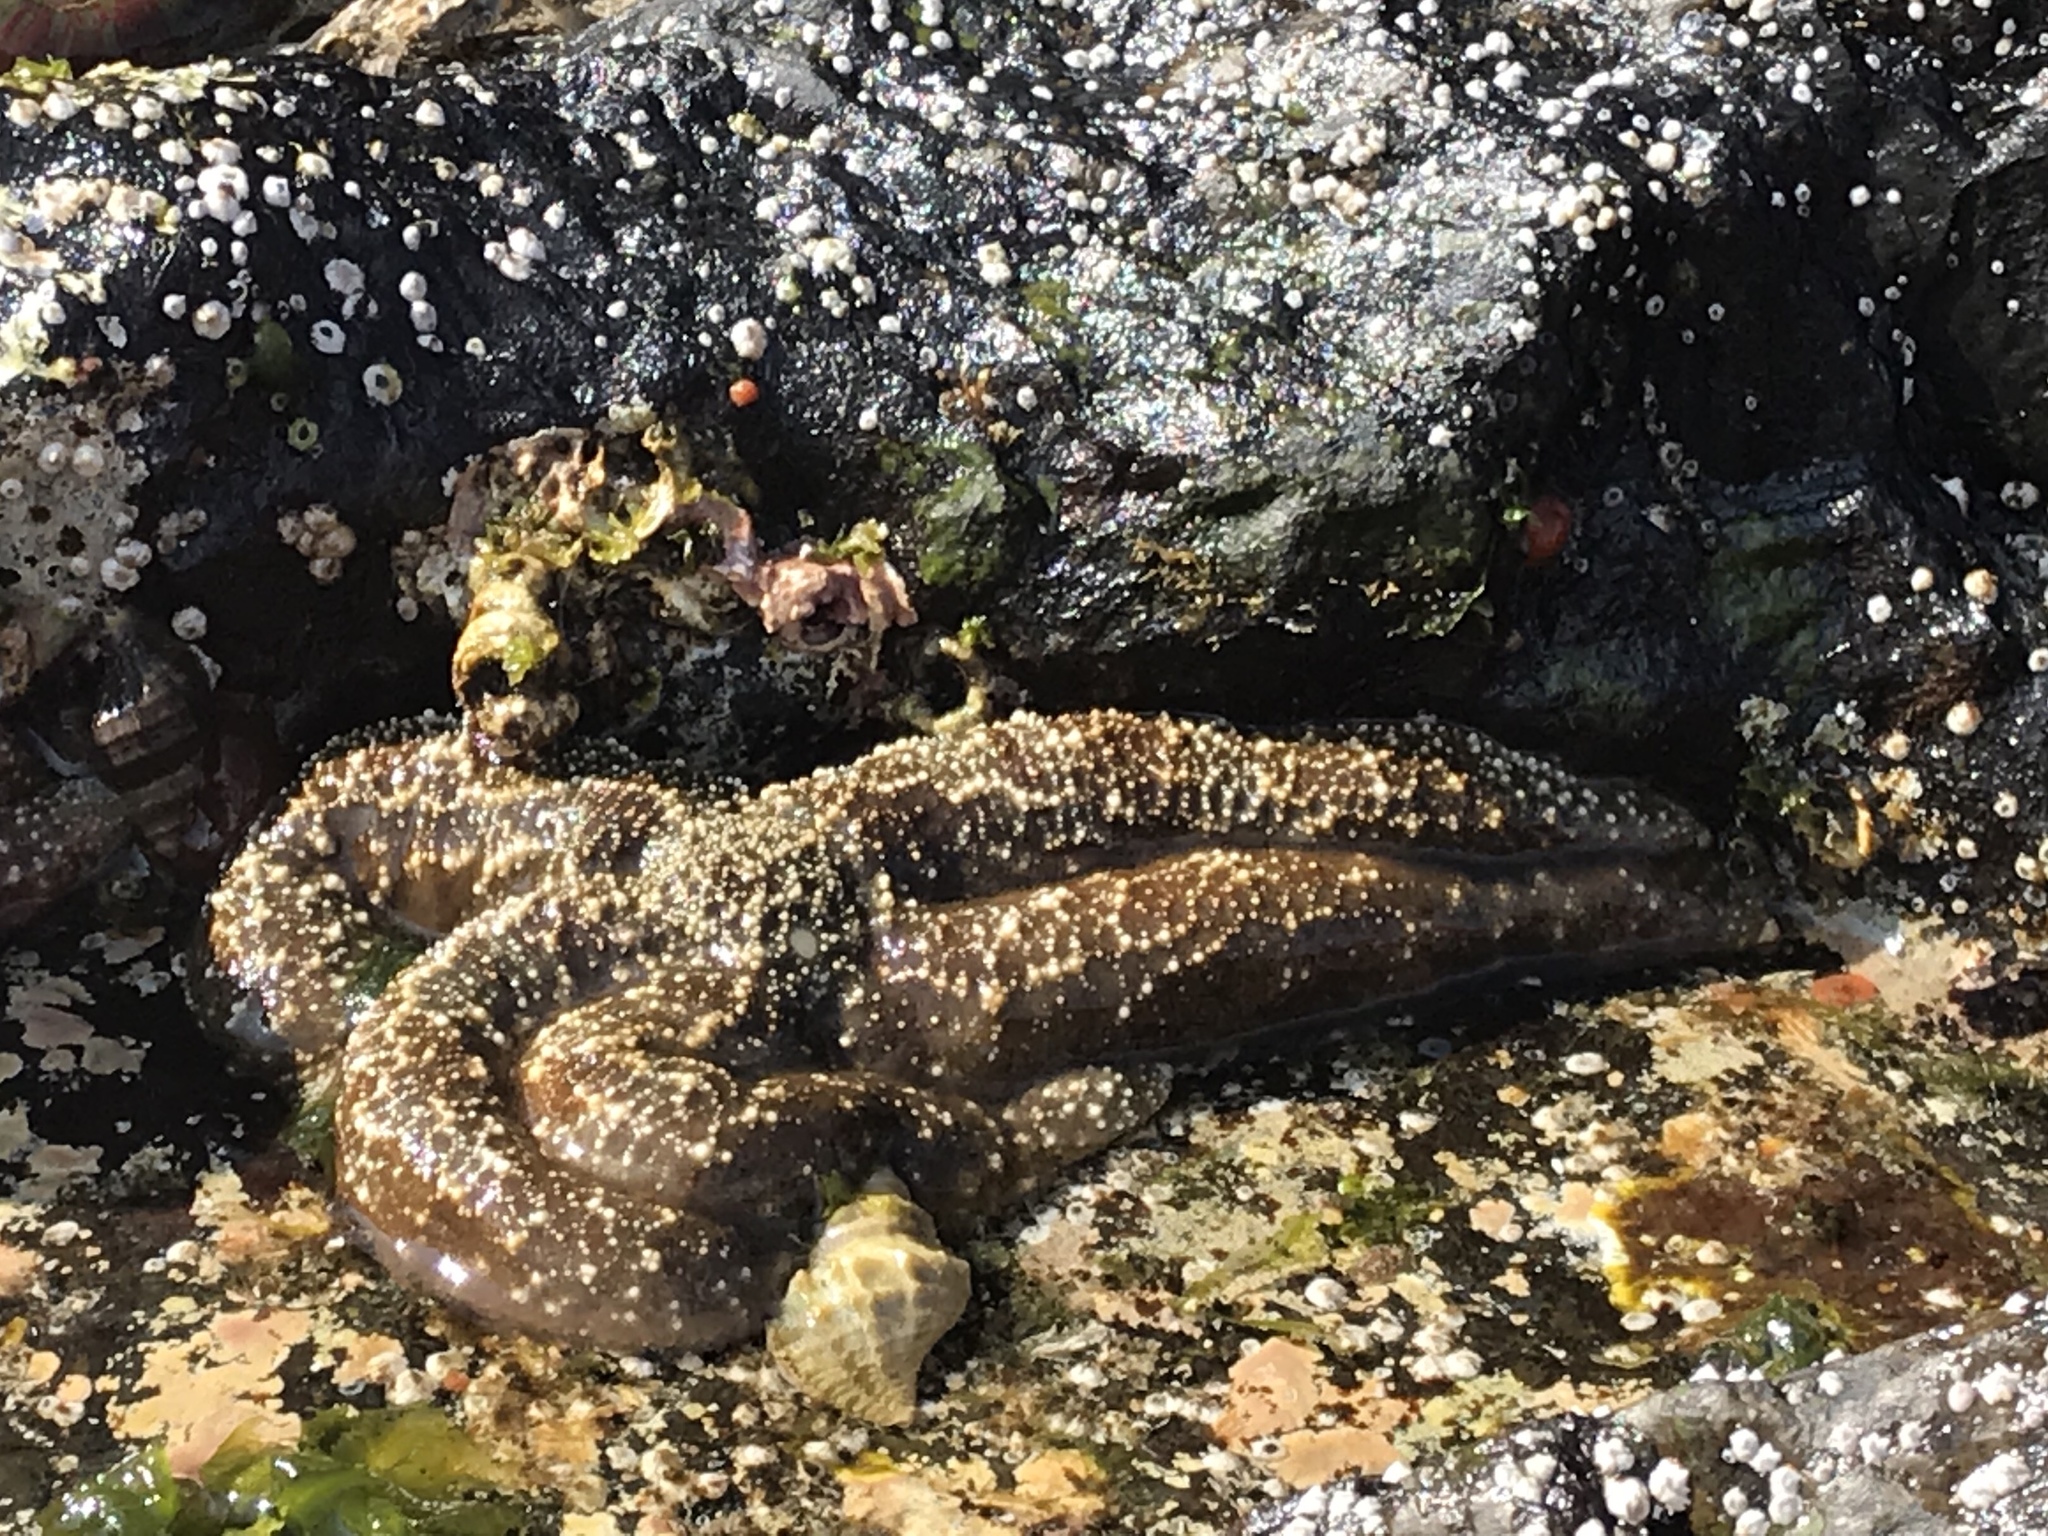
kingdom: Animalia
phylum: Echinodermata
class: Asteroidea
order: Forcipulatida
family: Asteriidae
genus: Evasterias
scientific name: Evasterias troschelii
